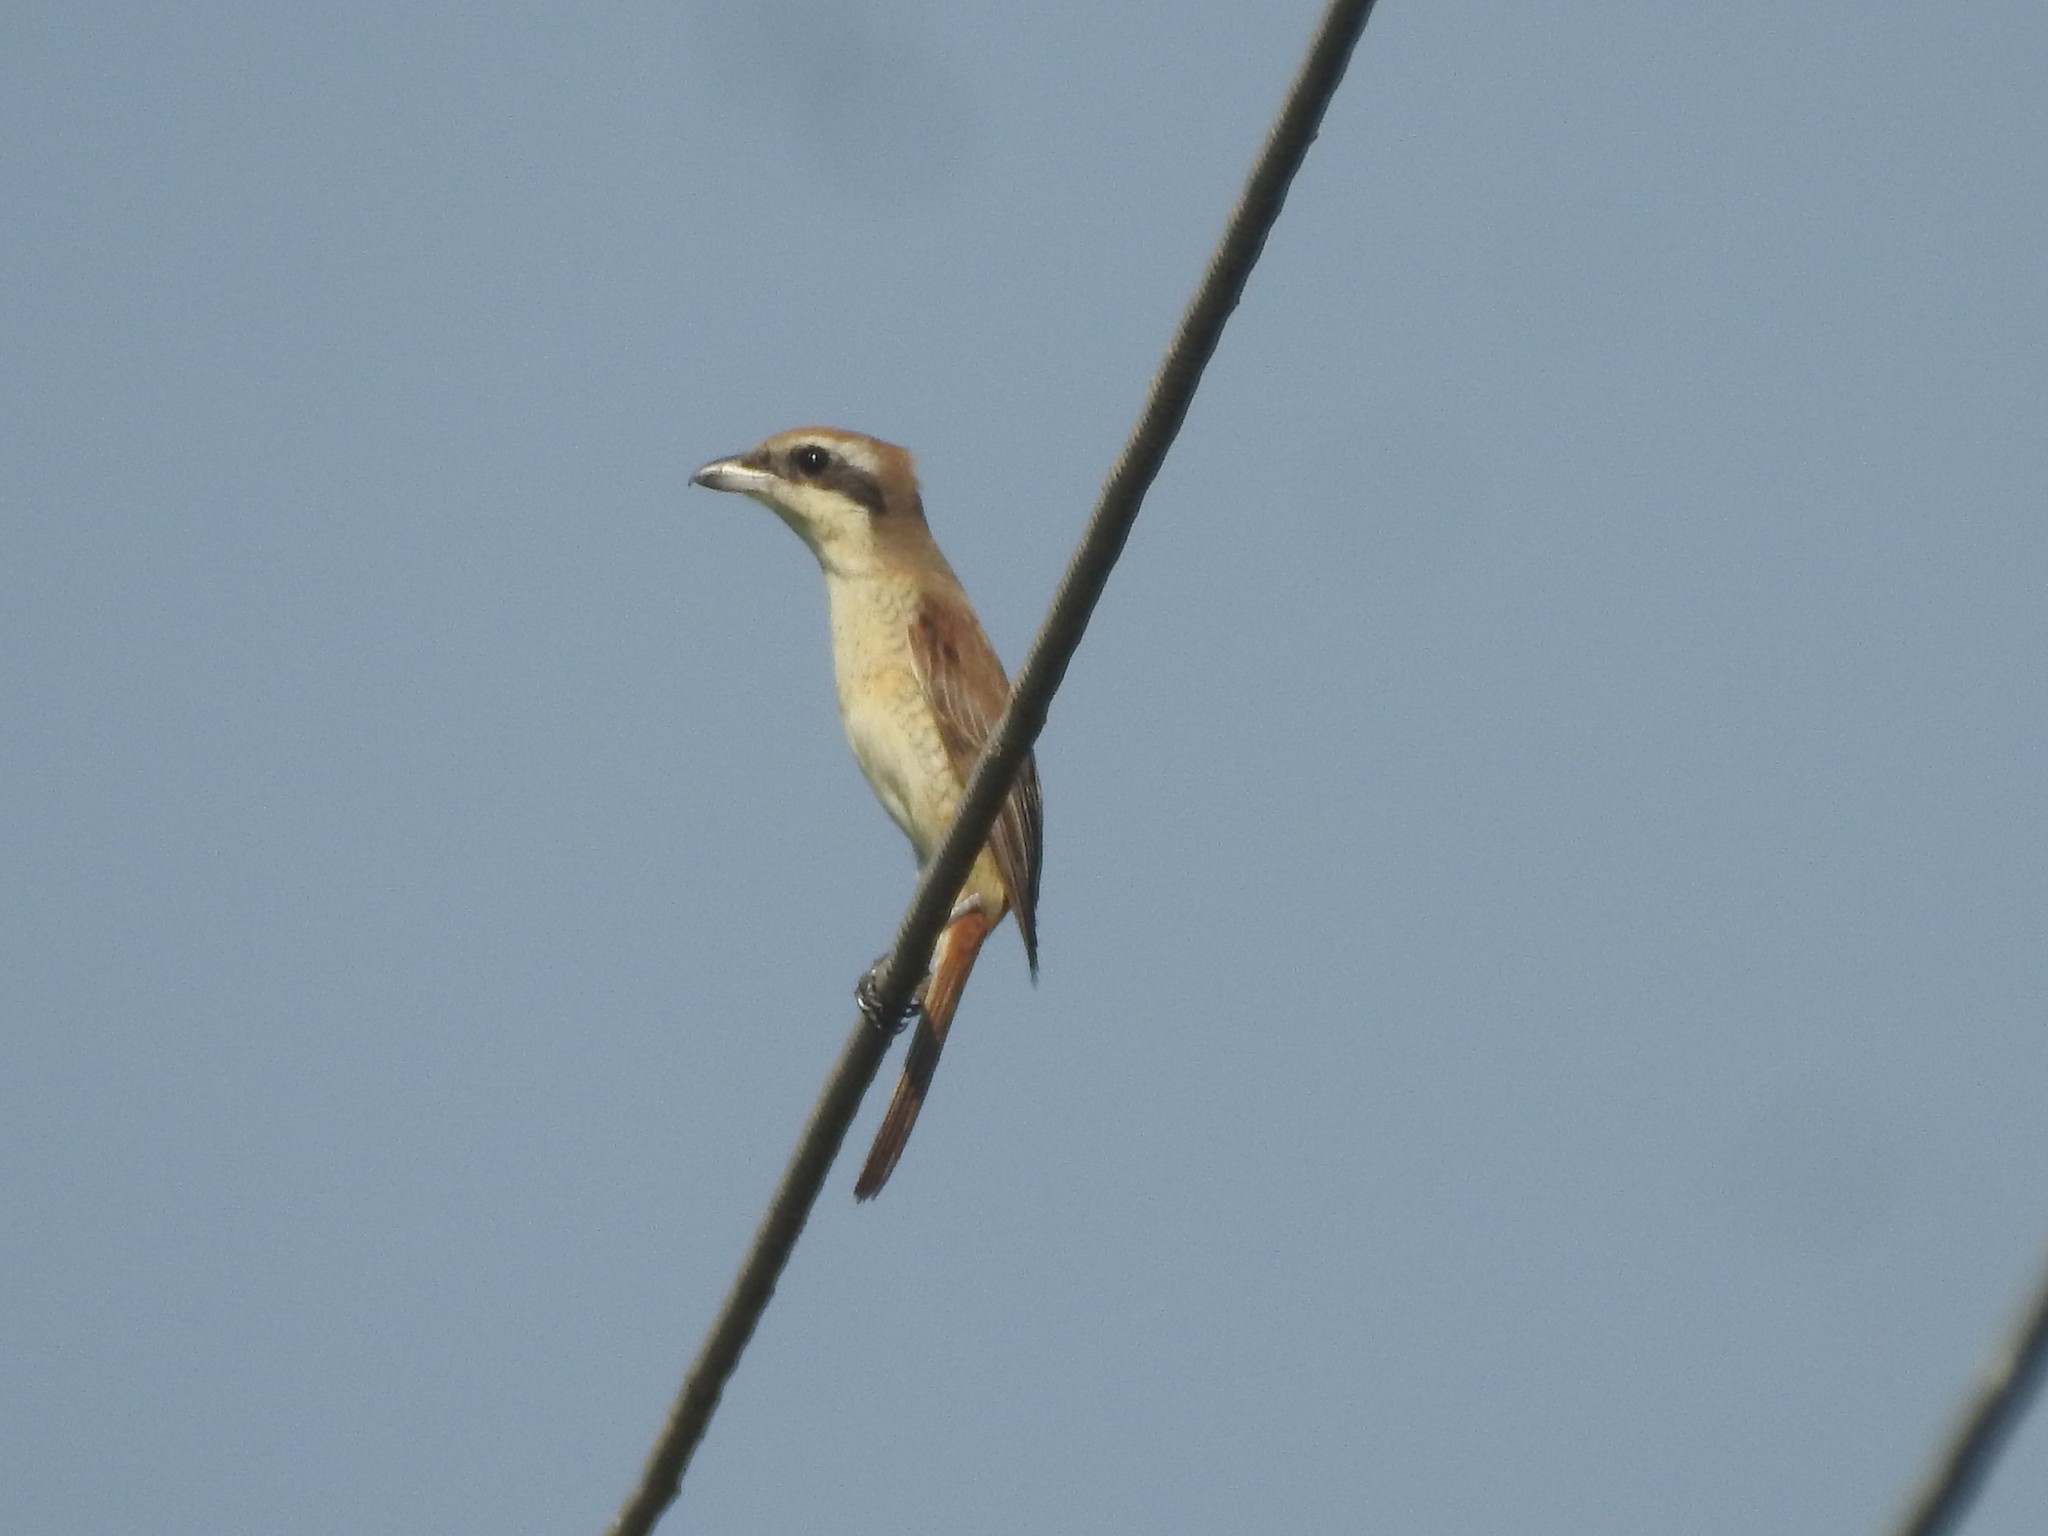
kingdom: Animalia
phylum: Chordata
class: Aves
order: Passeriformes
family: Laniidae
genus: Lanius
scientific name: Lanius cristatus
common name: Brown shrike
